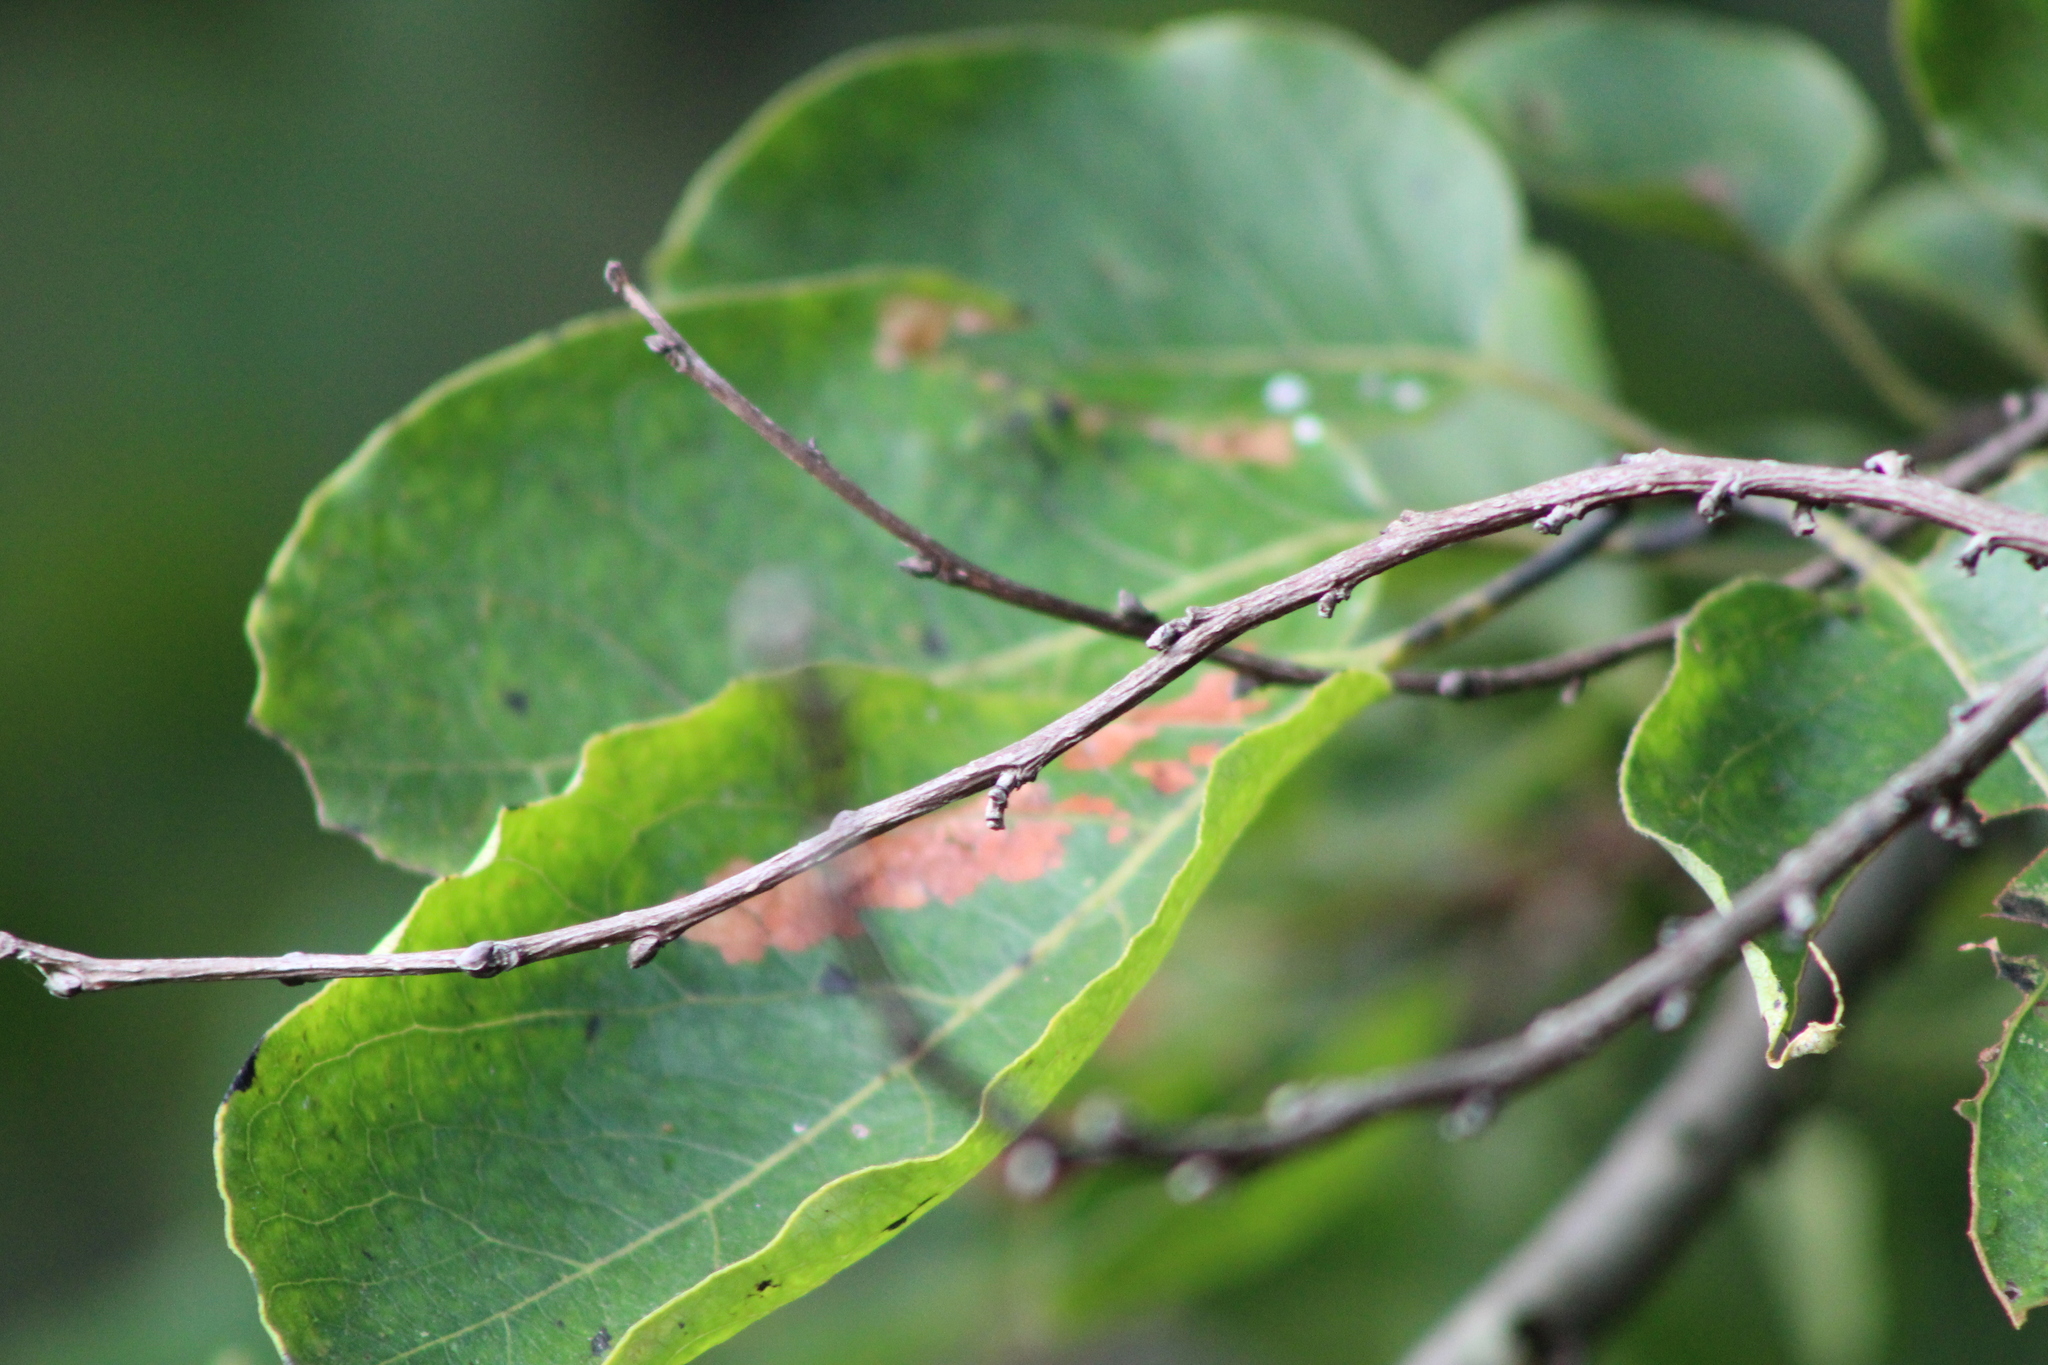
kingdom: Plantae
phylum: Tracheophyta
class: Magnoliopsida
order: Ericales
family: Ebenaceae
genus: Diospyros
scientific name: Diospyros virginiana
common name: Persimmon
